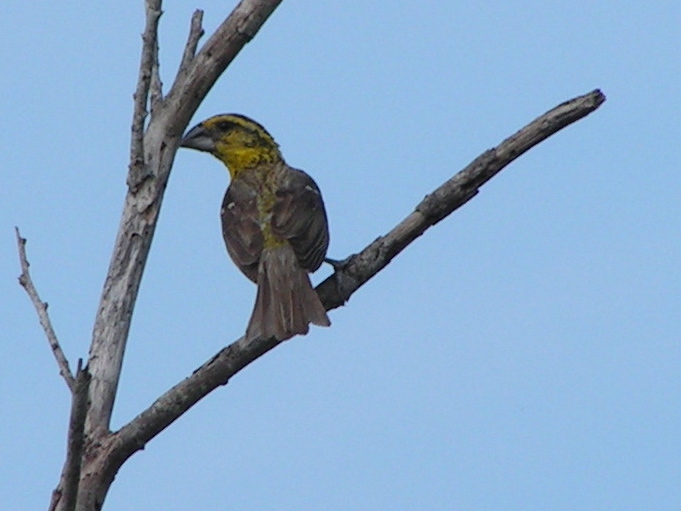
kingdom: Animalia
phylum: Chordata
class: Aves
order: Passeriformes
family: Cardinalidae
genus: Pheucticus
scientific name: Pheucticus chrysopeplus
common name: Yellow grosbeak
